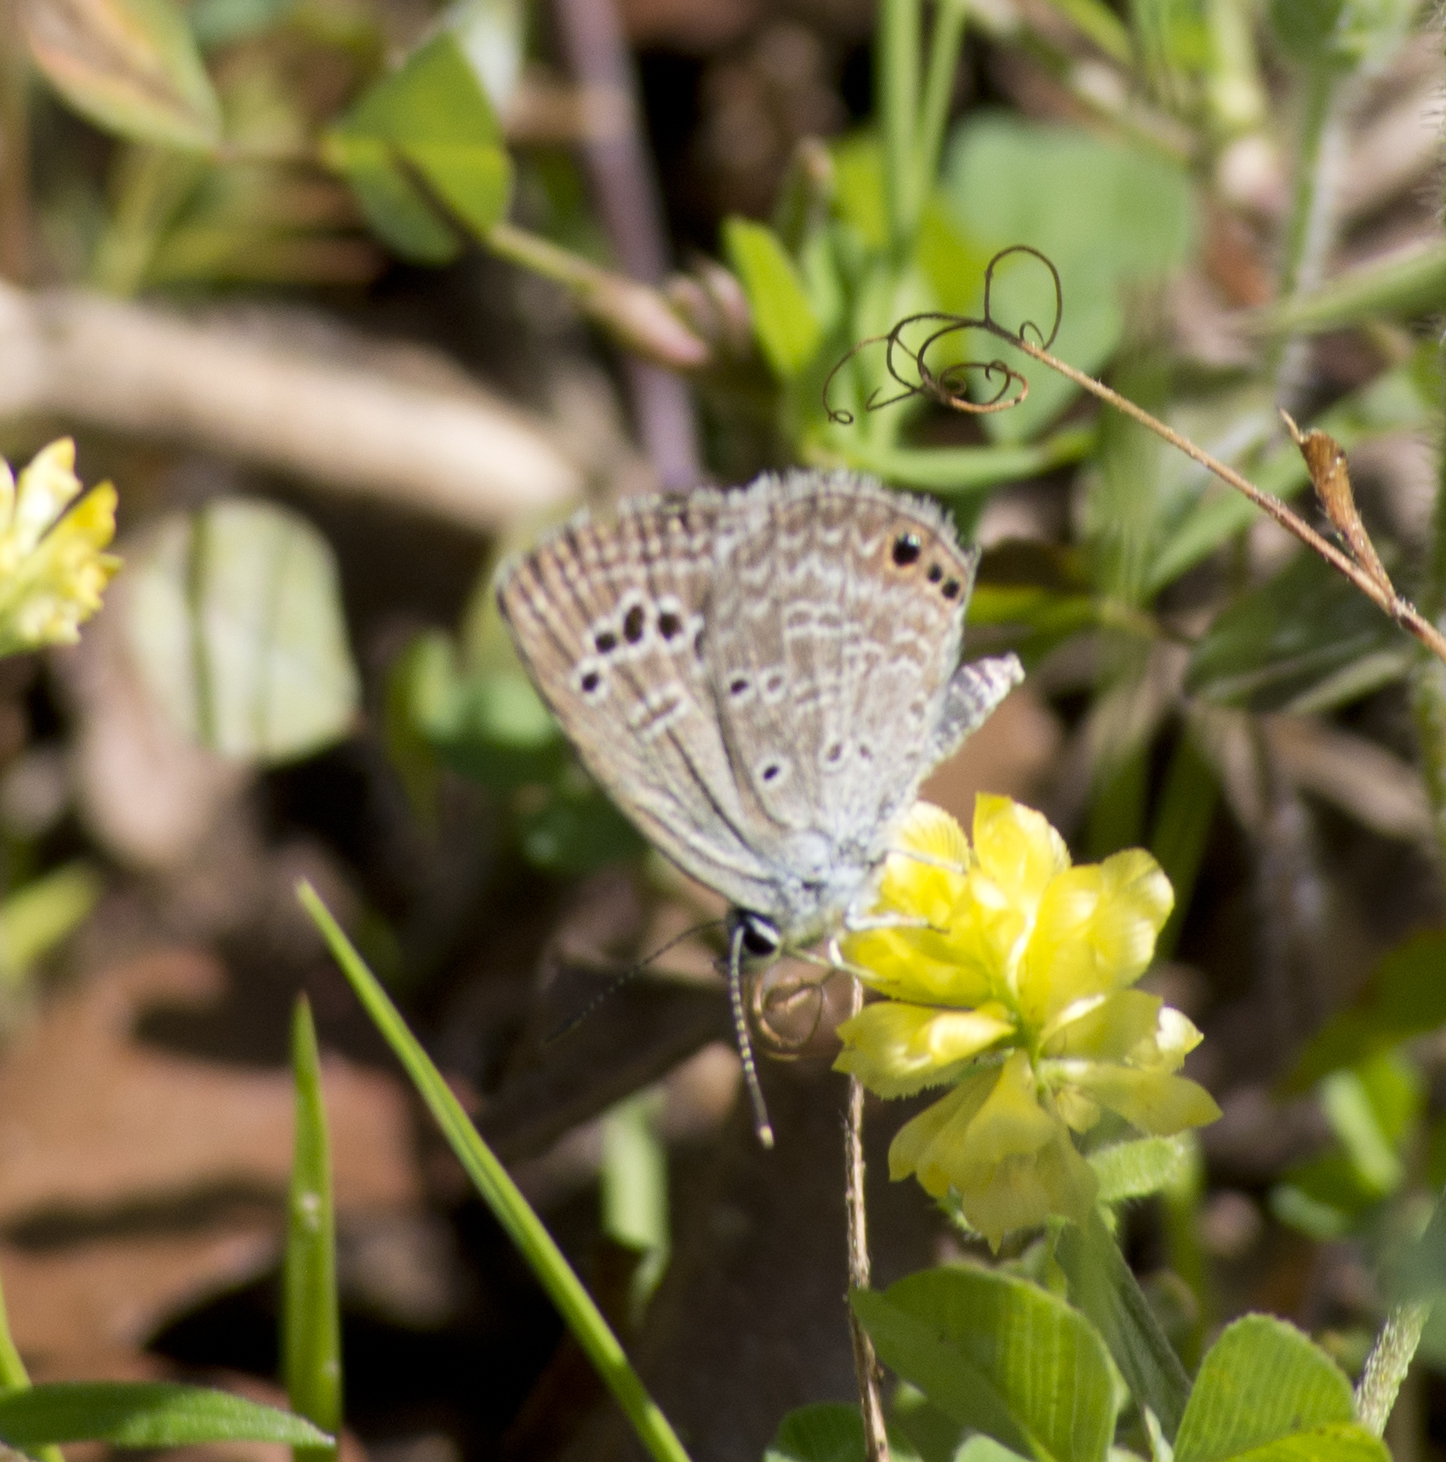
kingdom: Animalia
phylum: Arthropoda
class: Insecta
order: Lepidoptera
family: Lycaenidae
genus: Echinargus
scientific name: Echinargus isola
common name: Reakirt's blue
